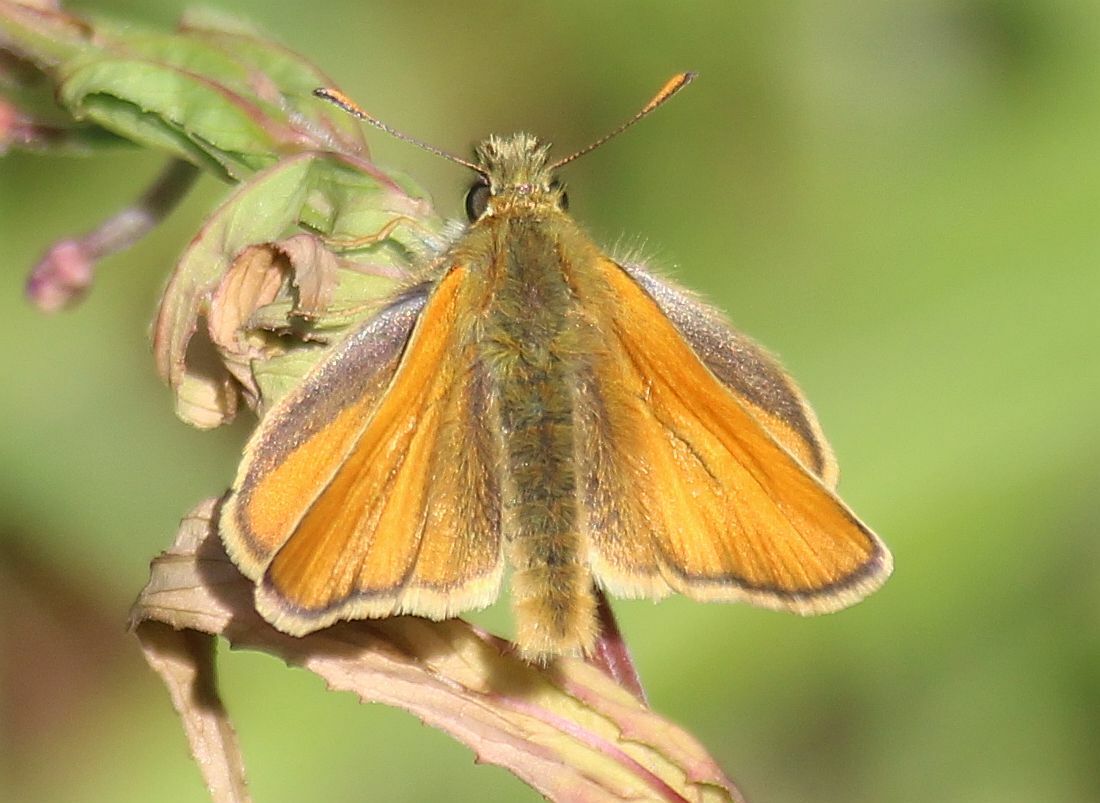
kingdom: Animalia
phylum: Arthropoda
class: Insecta
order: Lepidoptera
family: Hesperiidae
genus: Thymelicus
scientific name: Thymelicus sylvestris
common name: Small skipper
